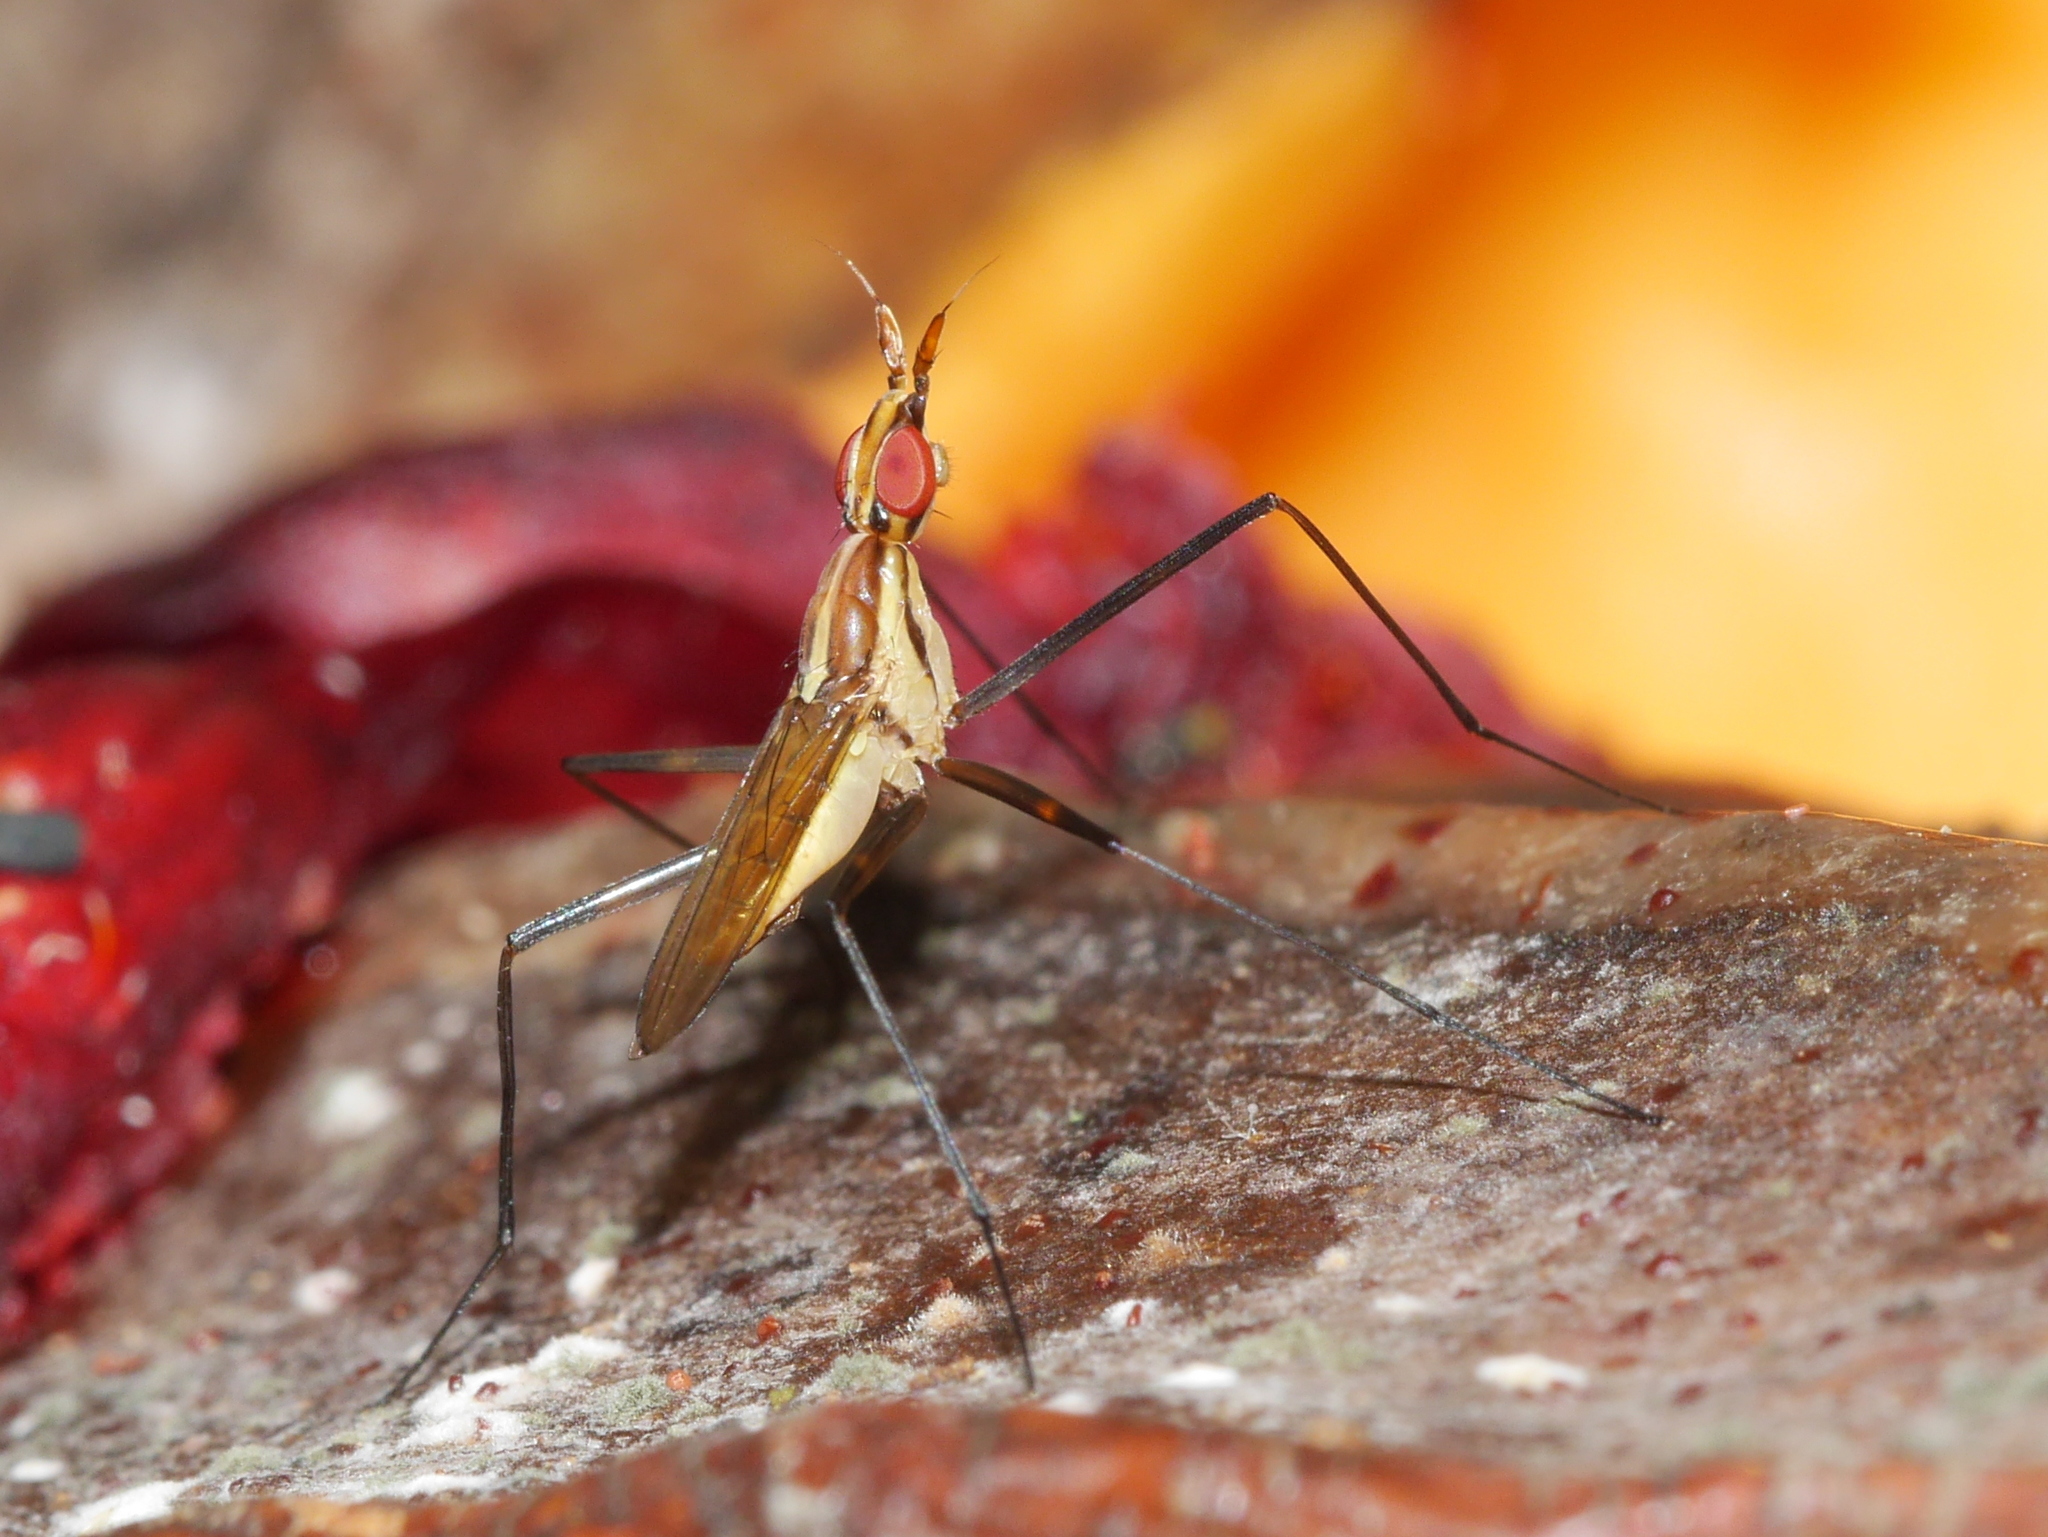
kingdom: Animalia
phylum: Arthropoda
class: Insecta
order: Diptera
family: Neriidae
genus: Telostylinus
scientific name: Telostylinus lineolatus
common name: Banana stalk fly
